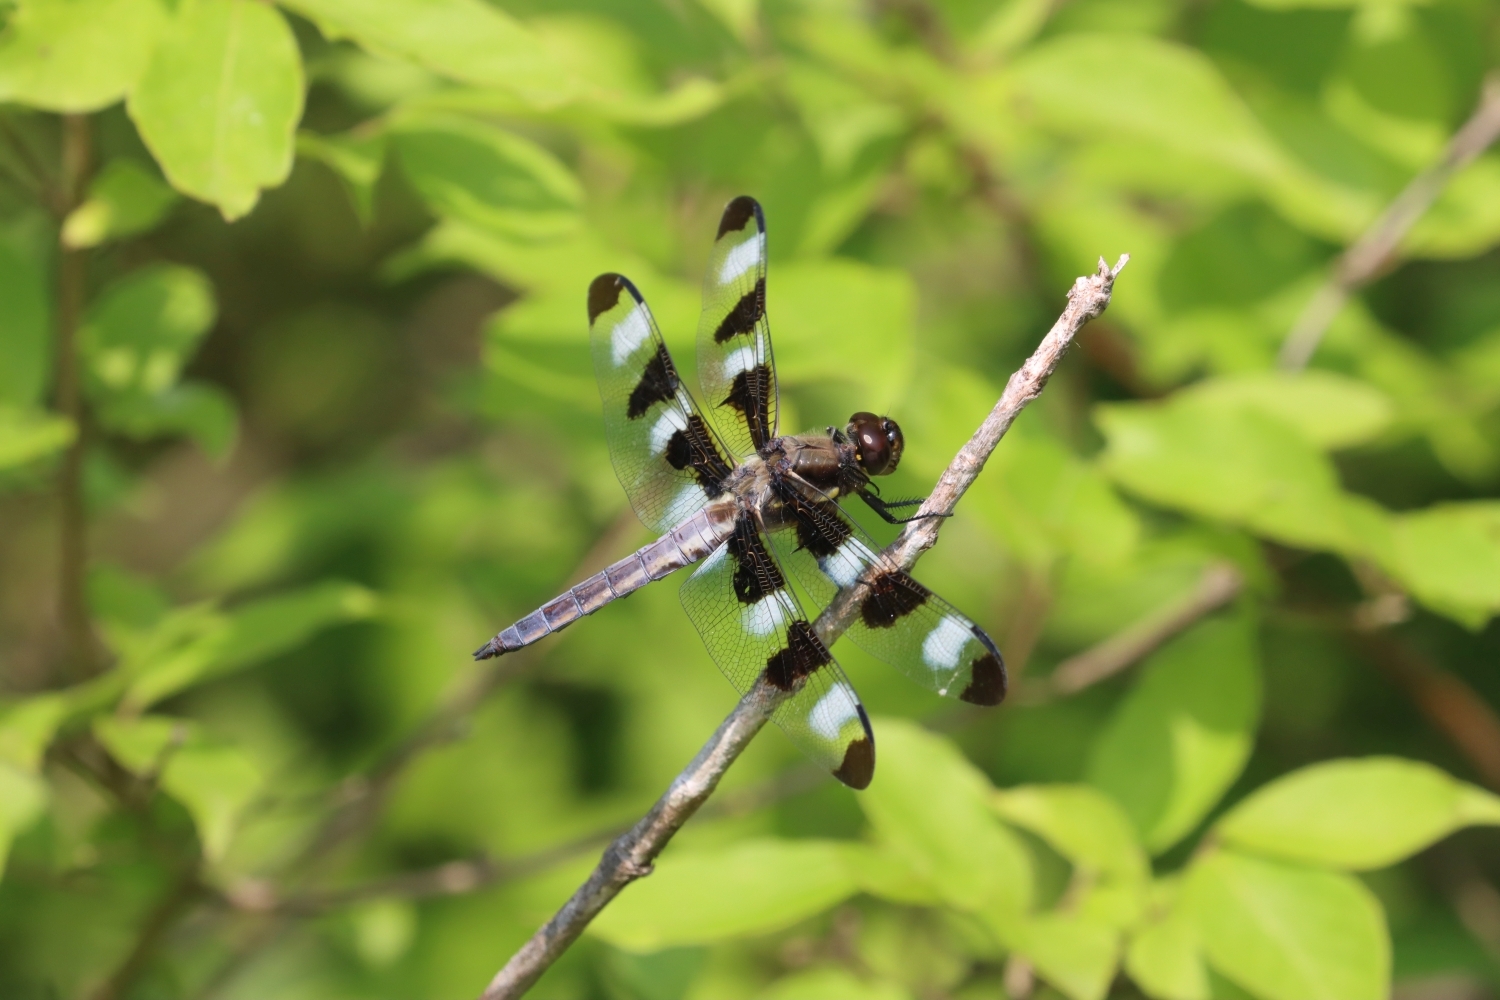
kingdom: Animalia
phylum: Arthropoda
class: Insecta
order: Odonata
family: Libellulidae
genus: Libellula
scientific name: Libellula pulchella
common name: Twelve-spotted skimmer
